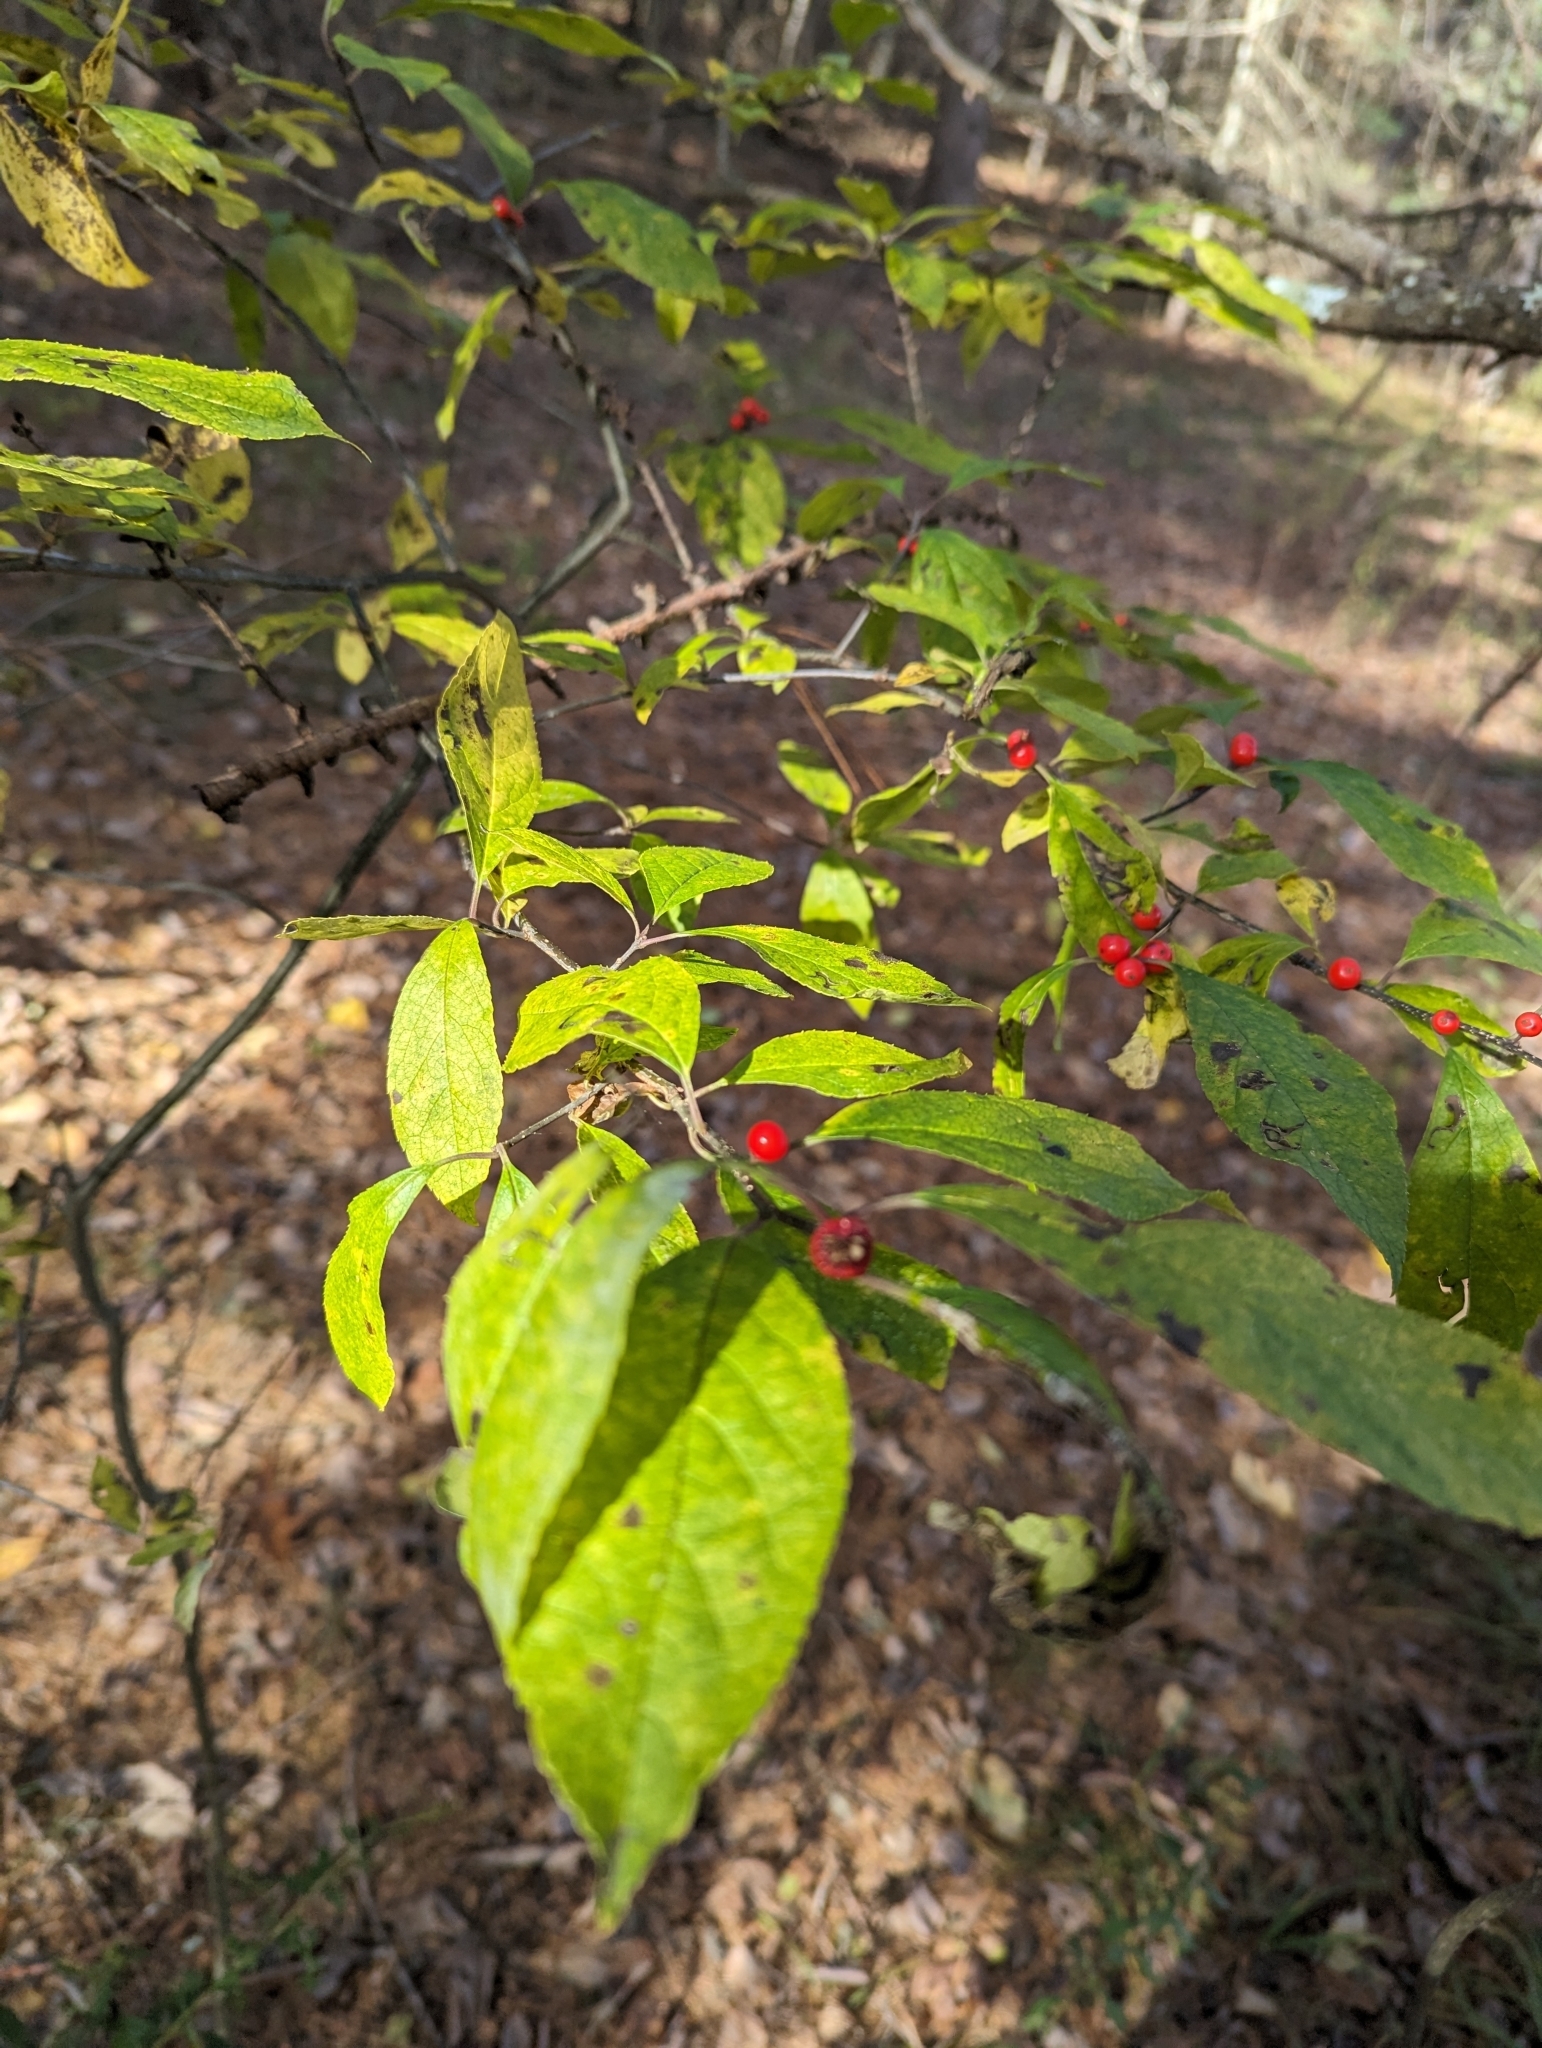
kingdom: Plantae
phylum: Tracheophyta
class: Magnoliopsida
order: Aquifoliales
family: Aquifoliaceae
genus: Ilex
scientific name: Ilex verticillata
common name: Virginia winterberry
